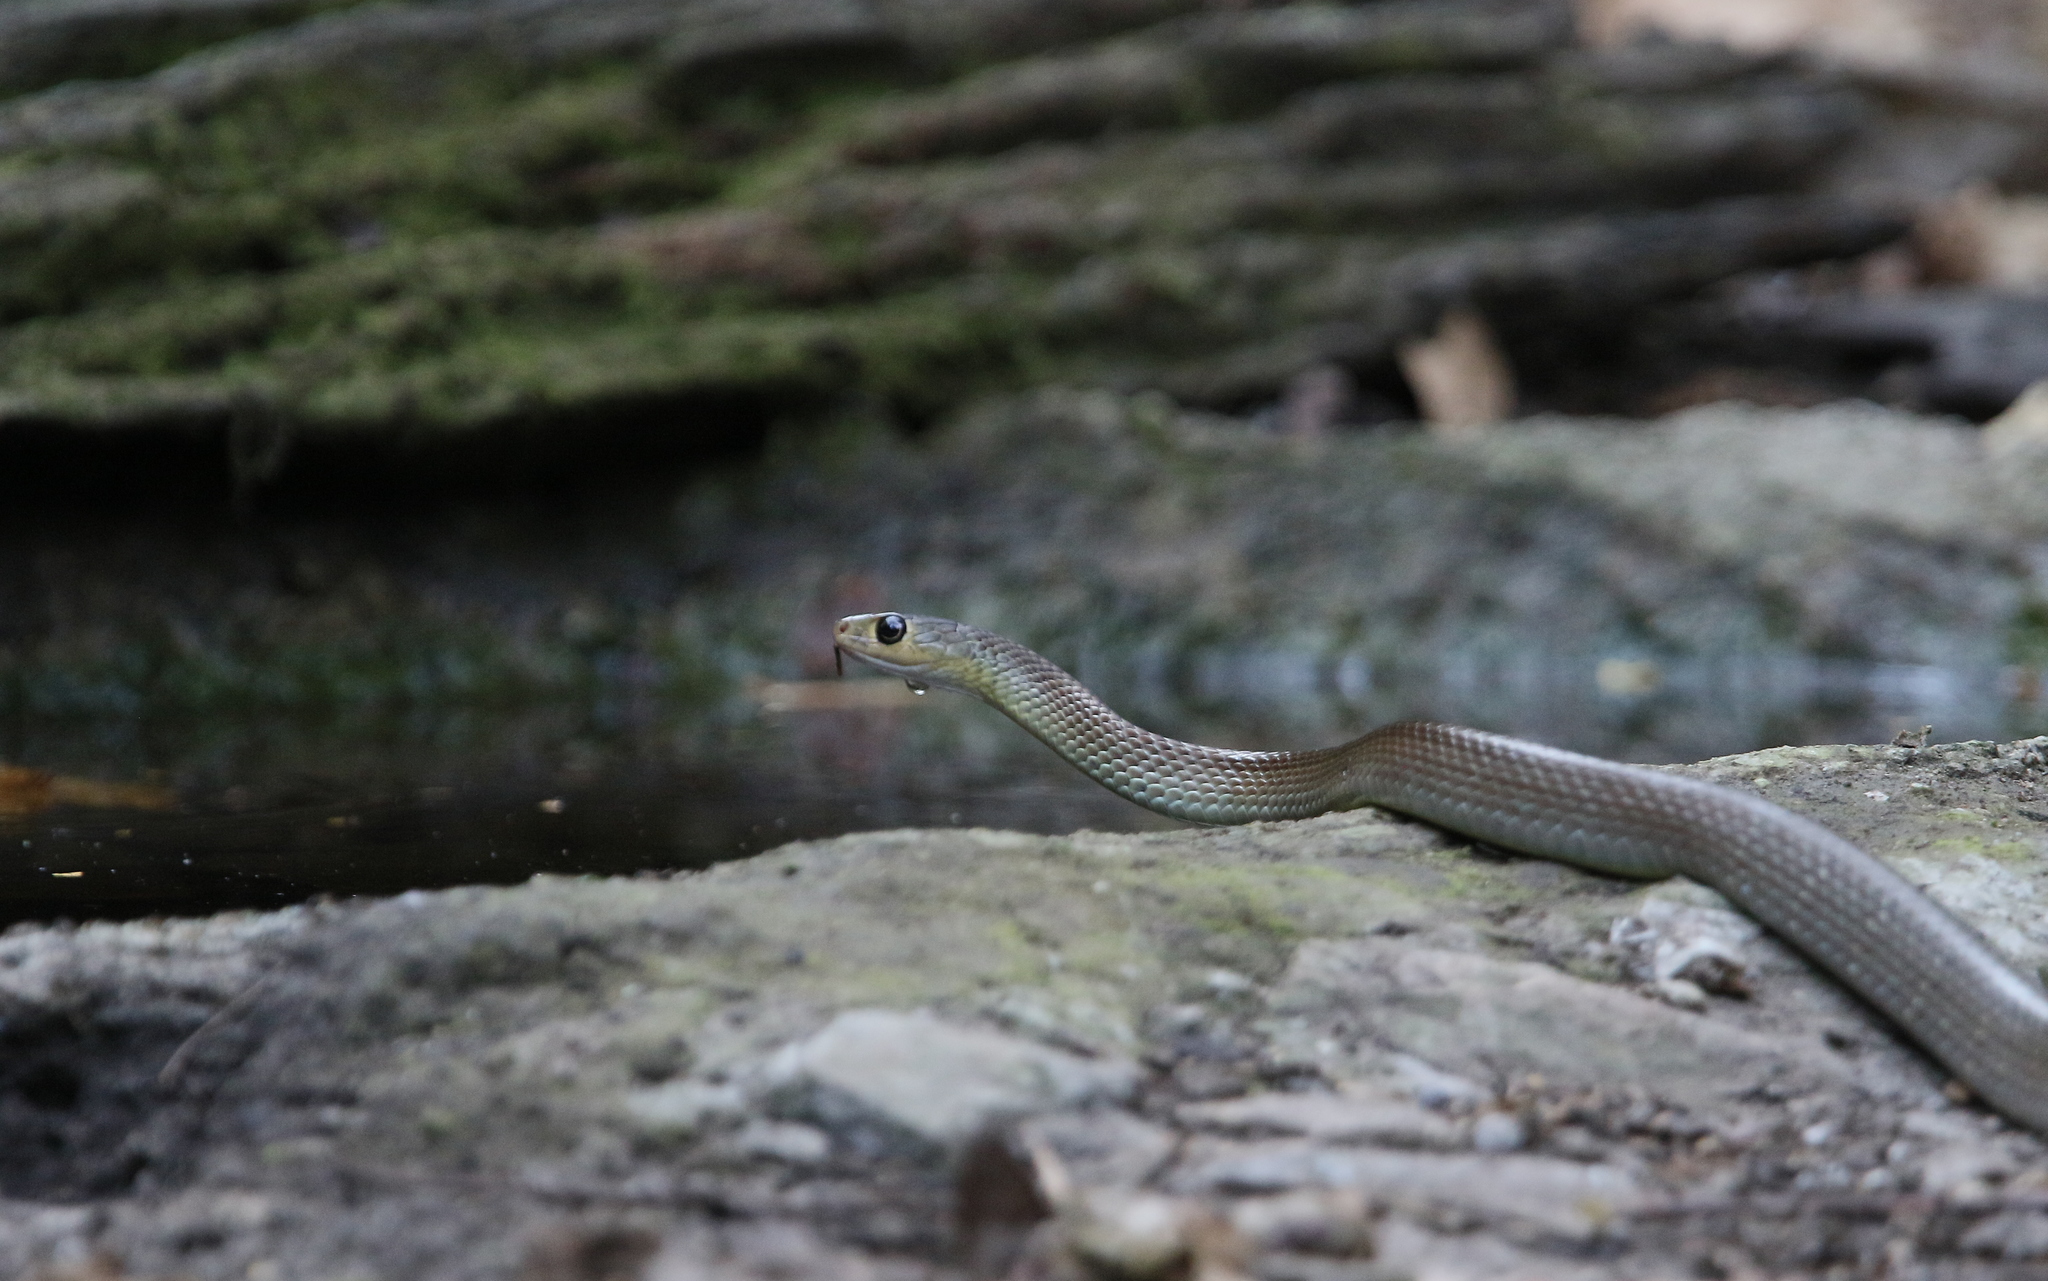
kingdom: Animalia
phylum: Chordata
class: Squamata
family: Colubridae
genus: Ptyas
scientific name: Ptyas korros
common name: Indo-chinese rat snake
